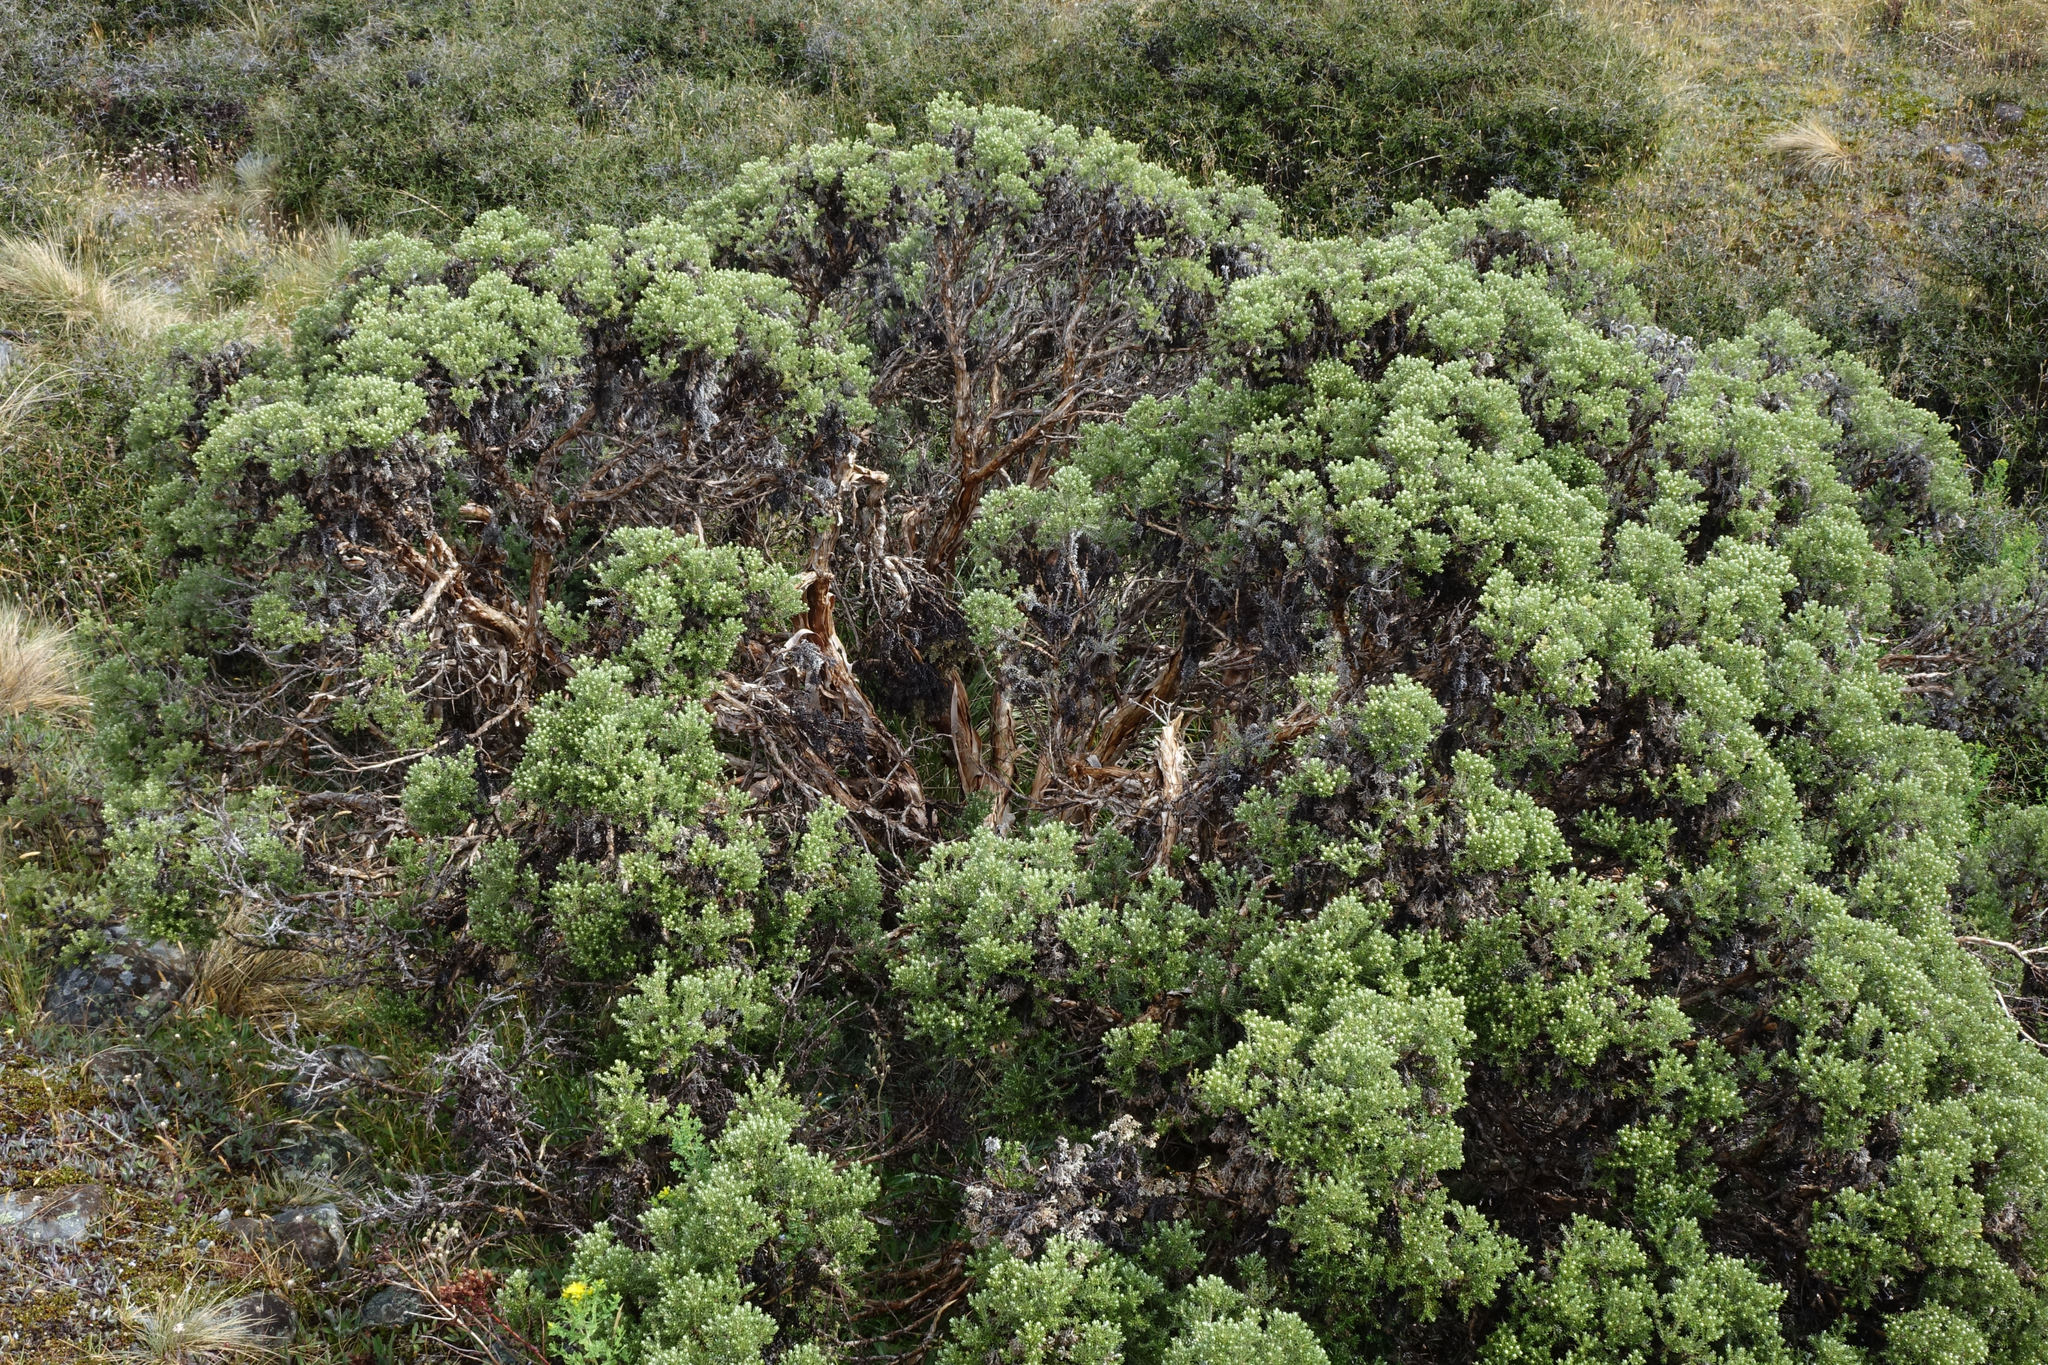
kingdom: Plantae
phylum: Tracheophyta
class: Magnoliopsida
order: Asterales
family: Asteraceae
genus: Brachyglottis
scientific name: Brachyglottis cassinioides
